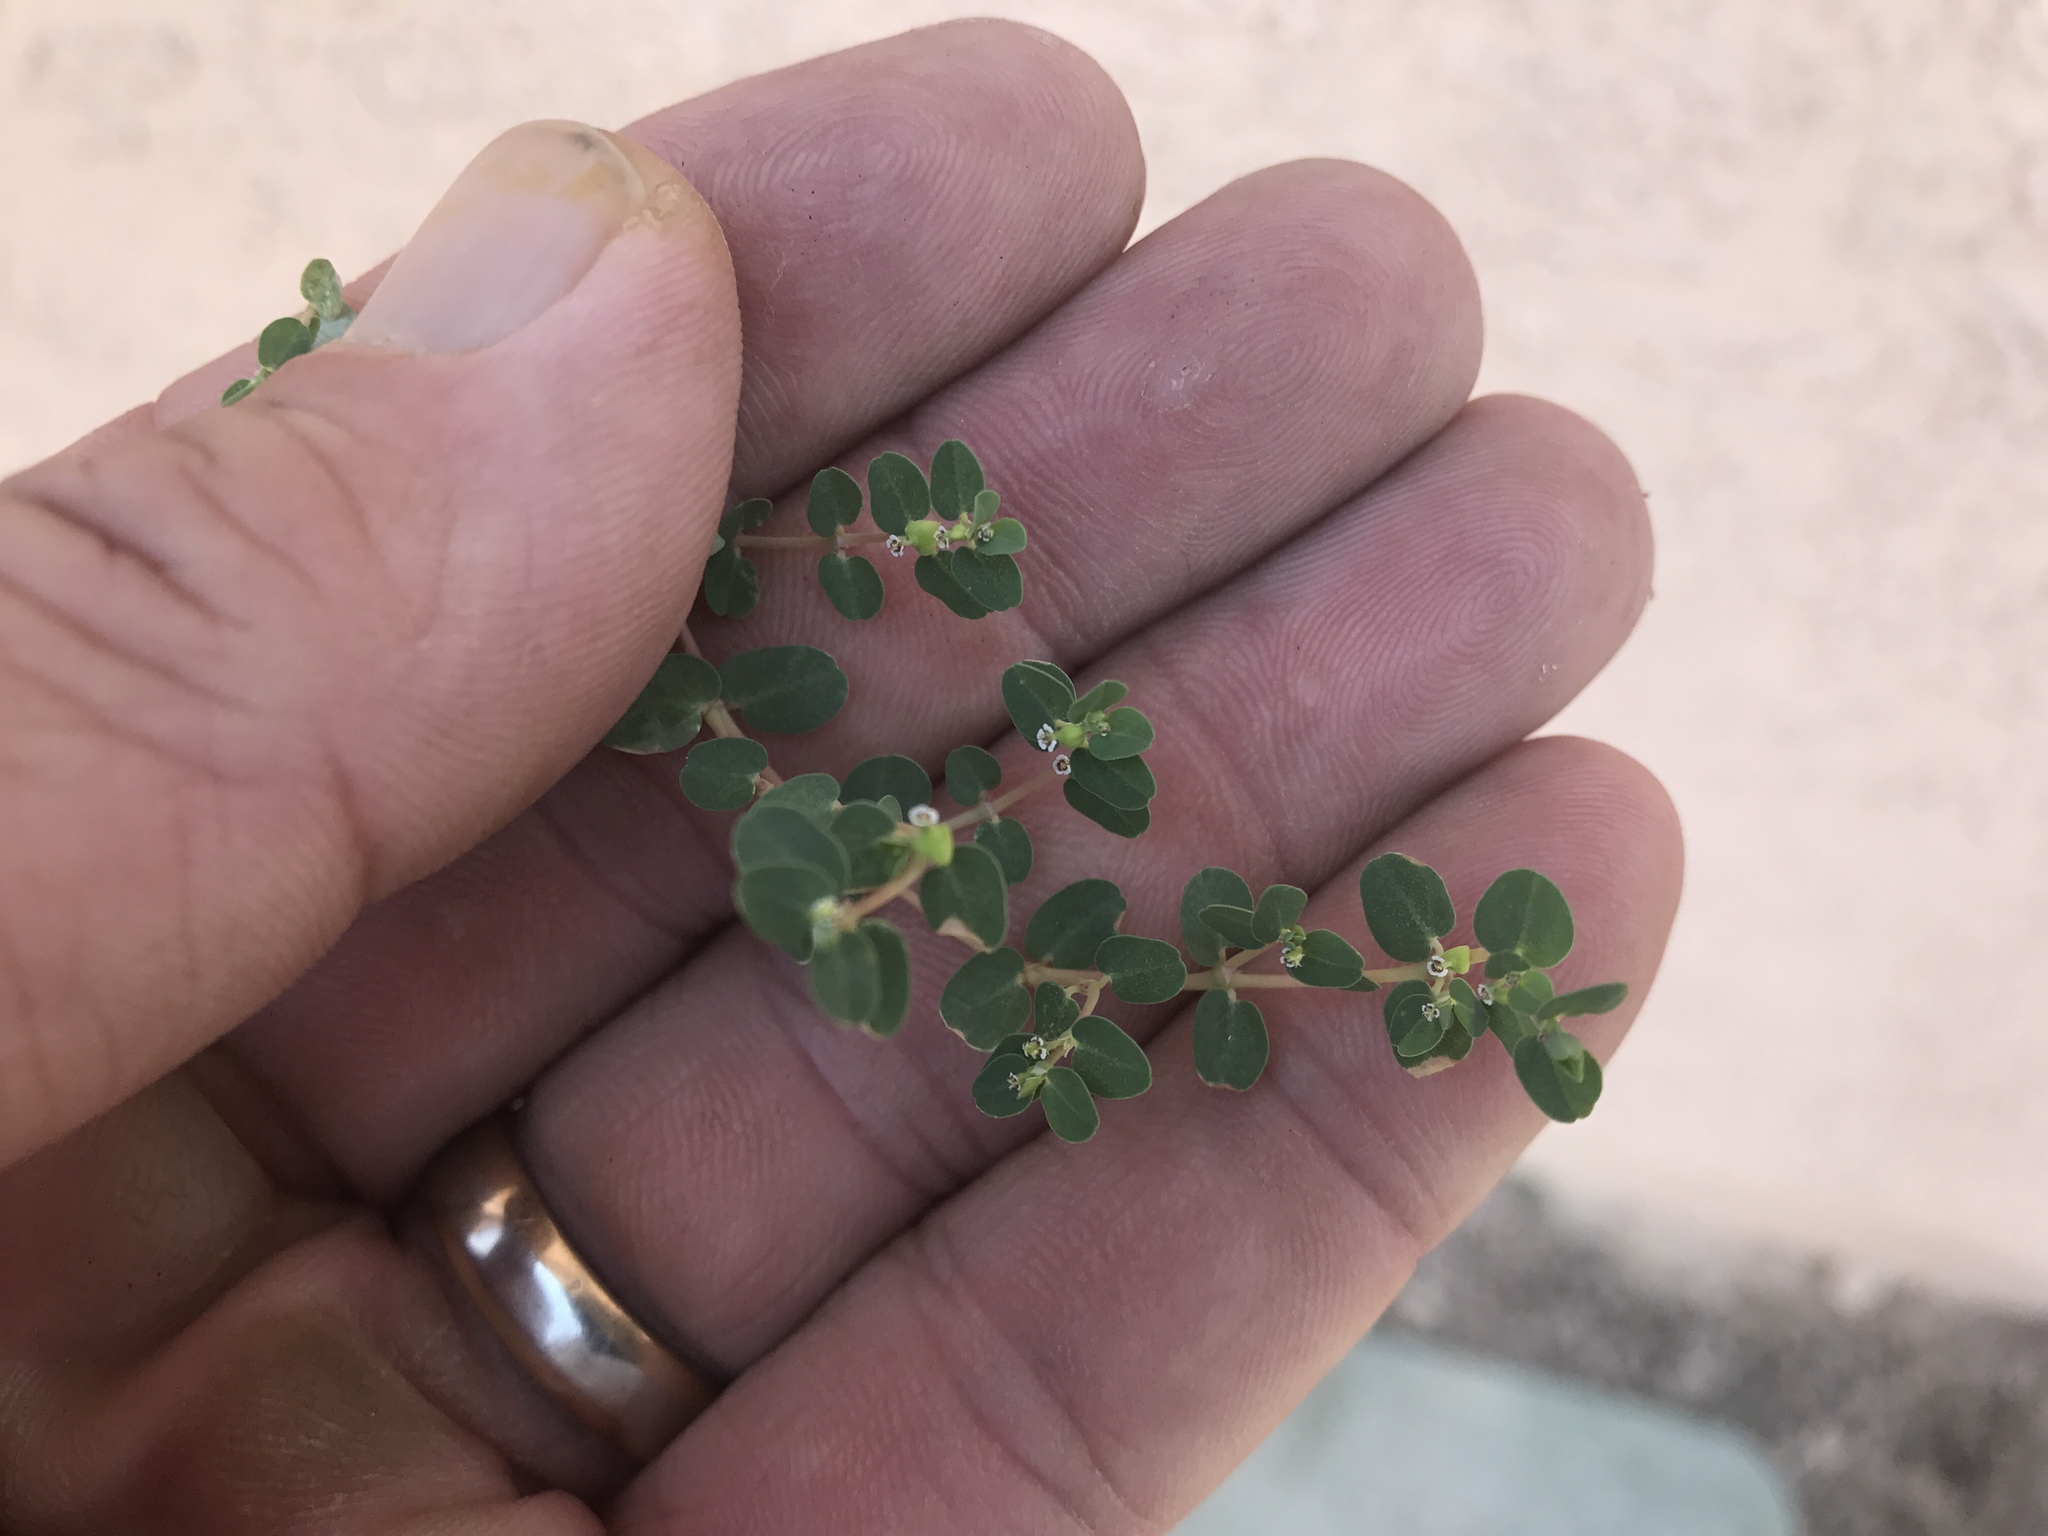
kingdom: Plantae
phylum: Tracheophyta
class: Magnoliopsida
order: Malpighiales
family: Euphorbiaceae
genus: Euphorbia
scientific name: Euphorbia serpens
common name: Matted sandmat
